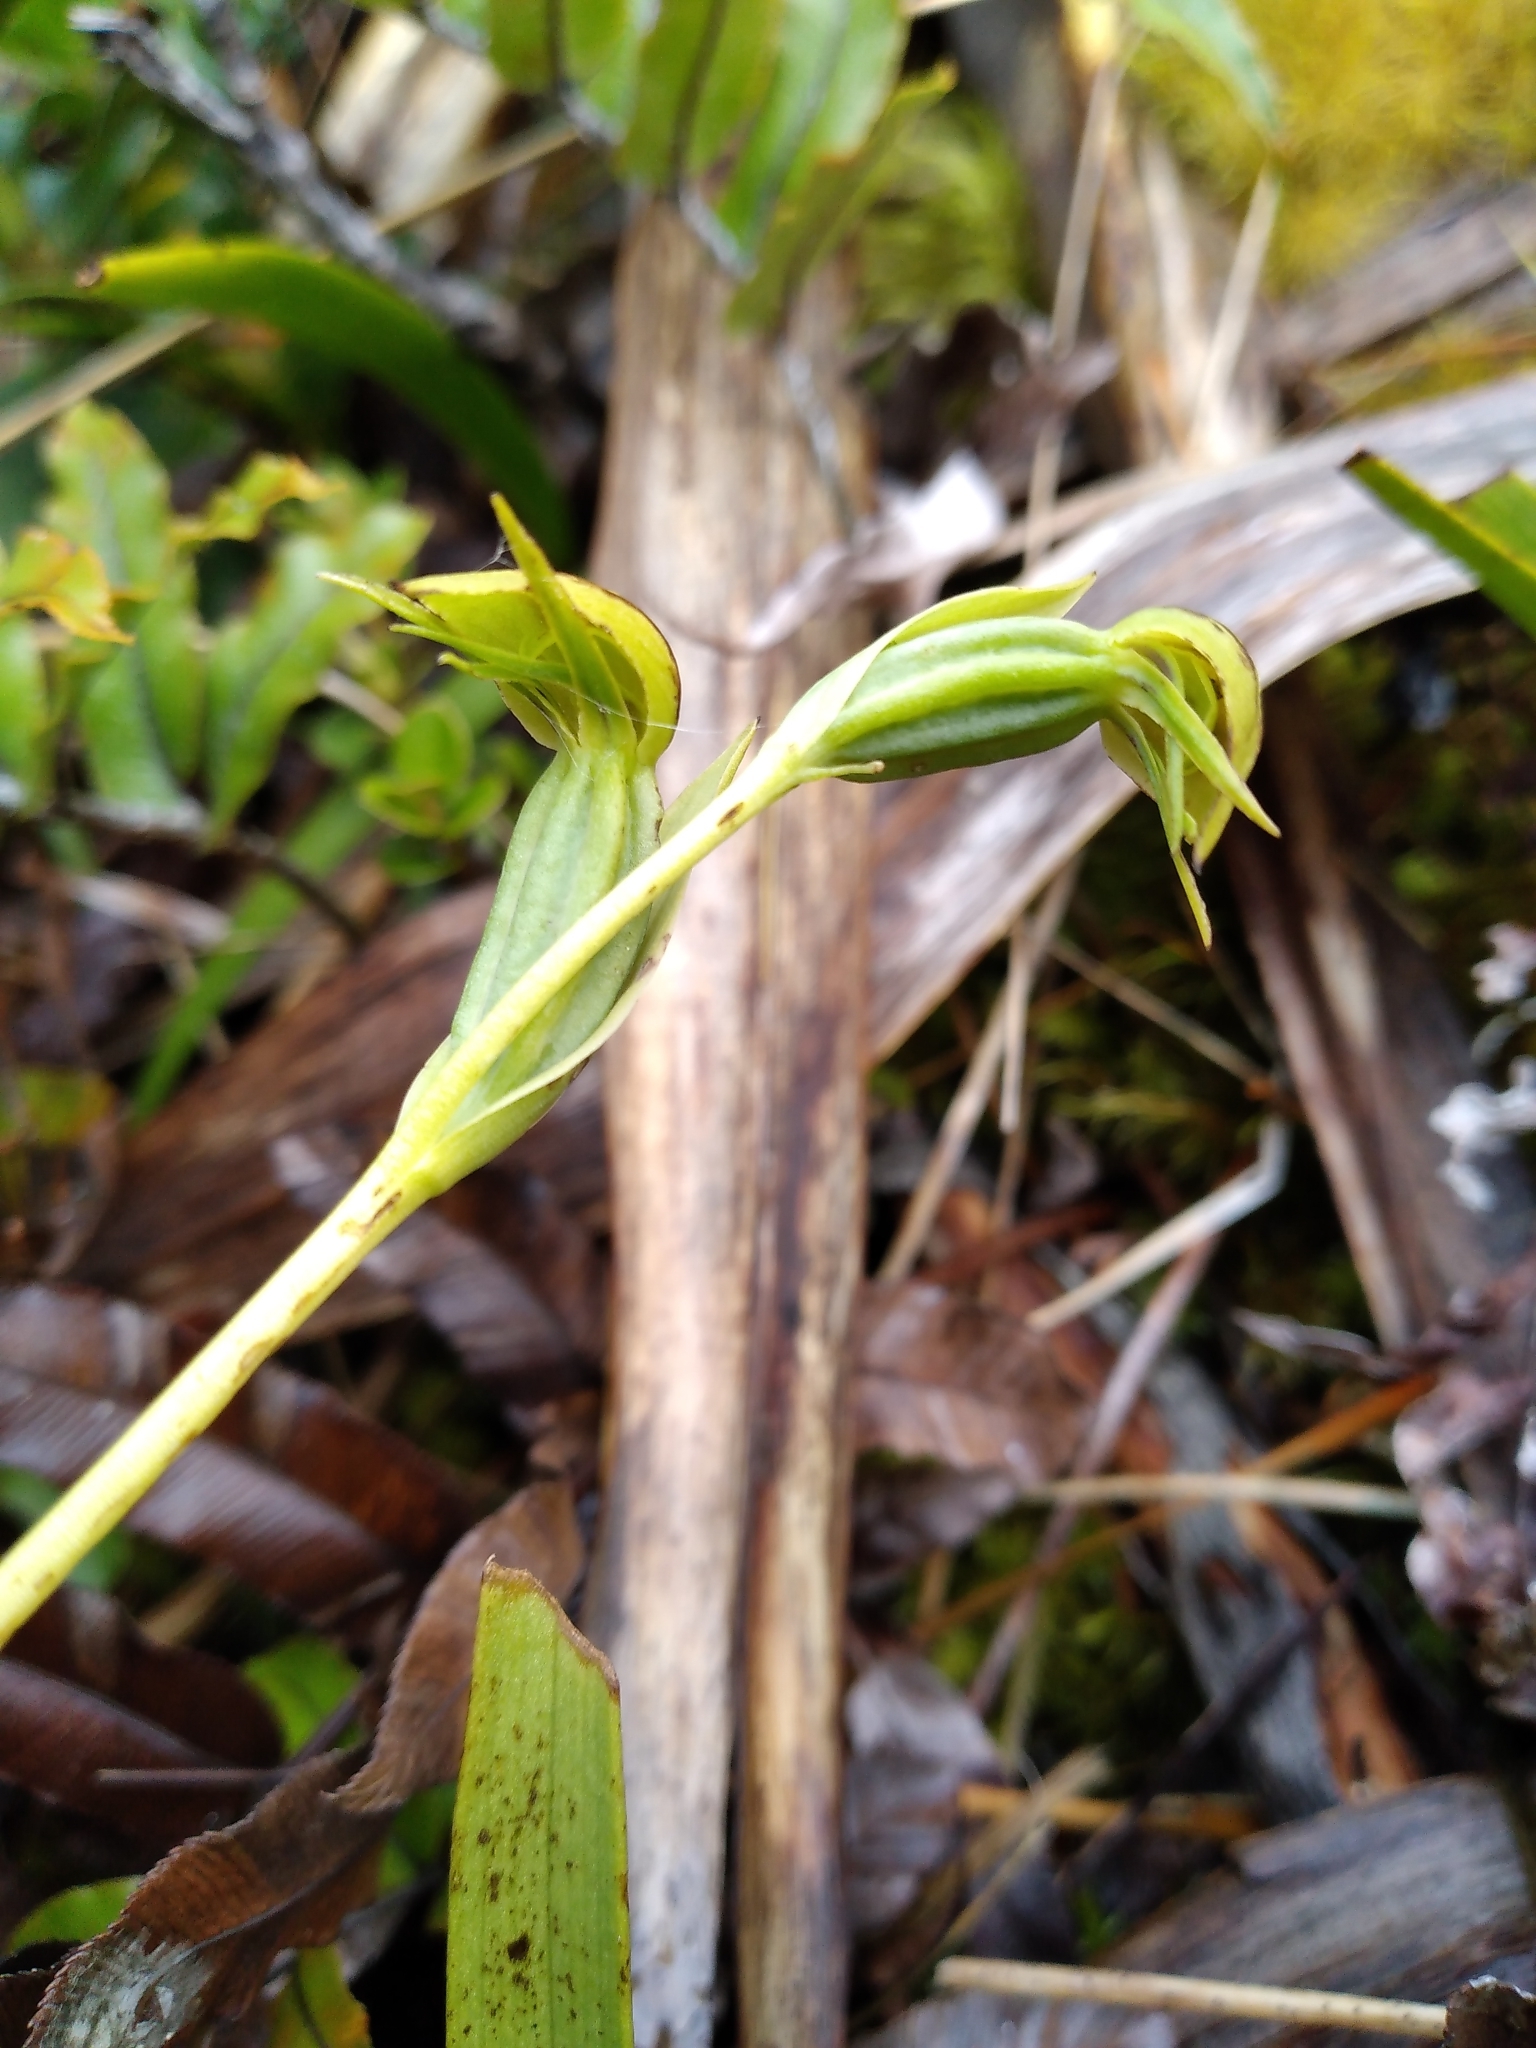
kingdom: Plantae
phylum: Tracheophyta
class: Liliopsida
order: Asparagales
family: Orchidaceae
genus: Waireia
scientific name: Waireia stenopetala
